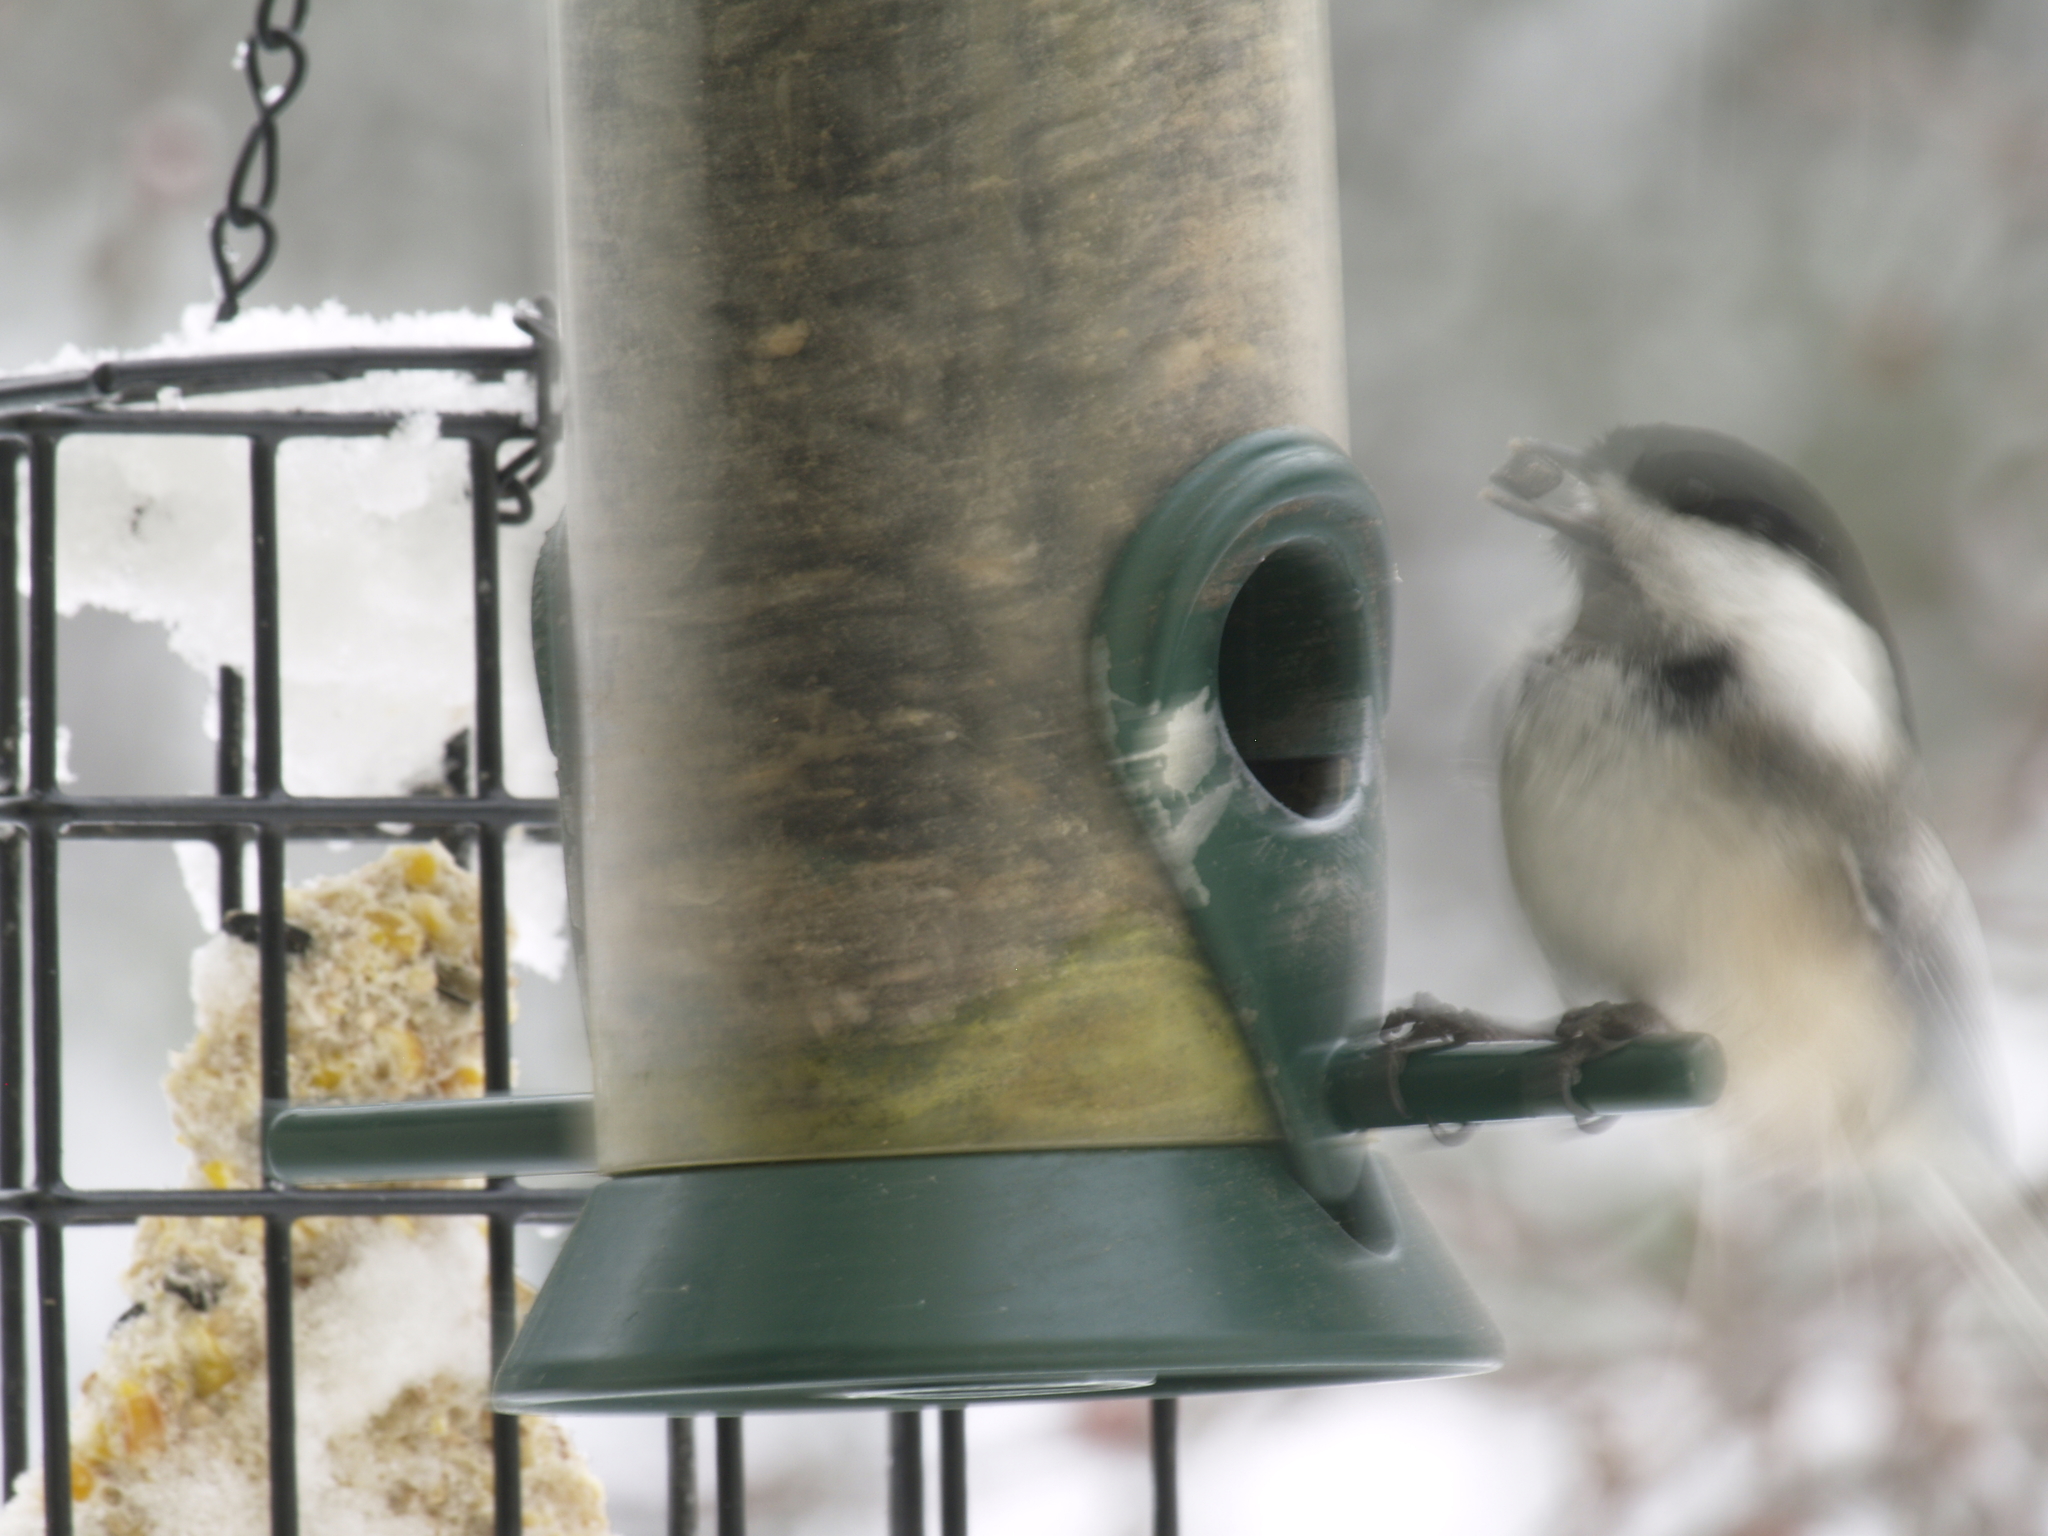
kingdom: Animalia
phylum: Chordata
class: Aves
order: Passeriformes
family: Paridae
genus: Poecile
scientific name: Poecile atricapillus
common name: Black-capped chickadee
